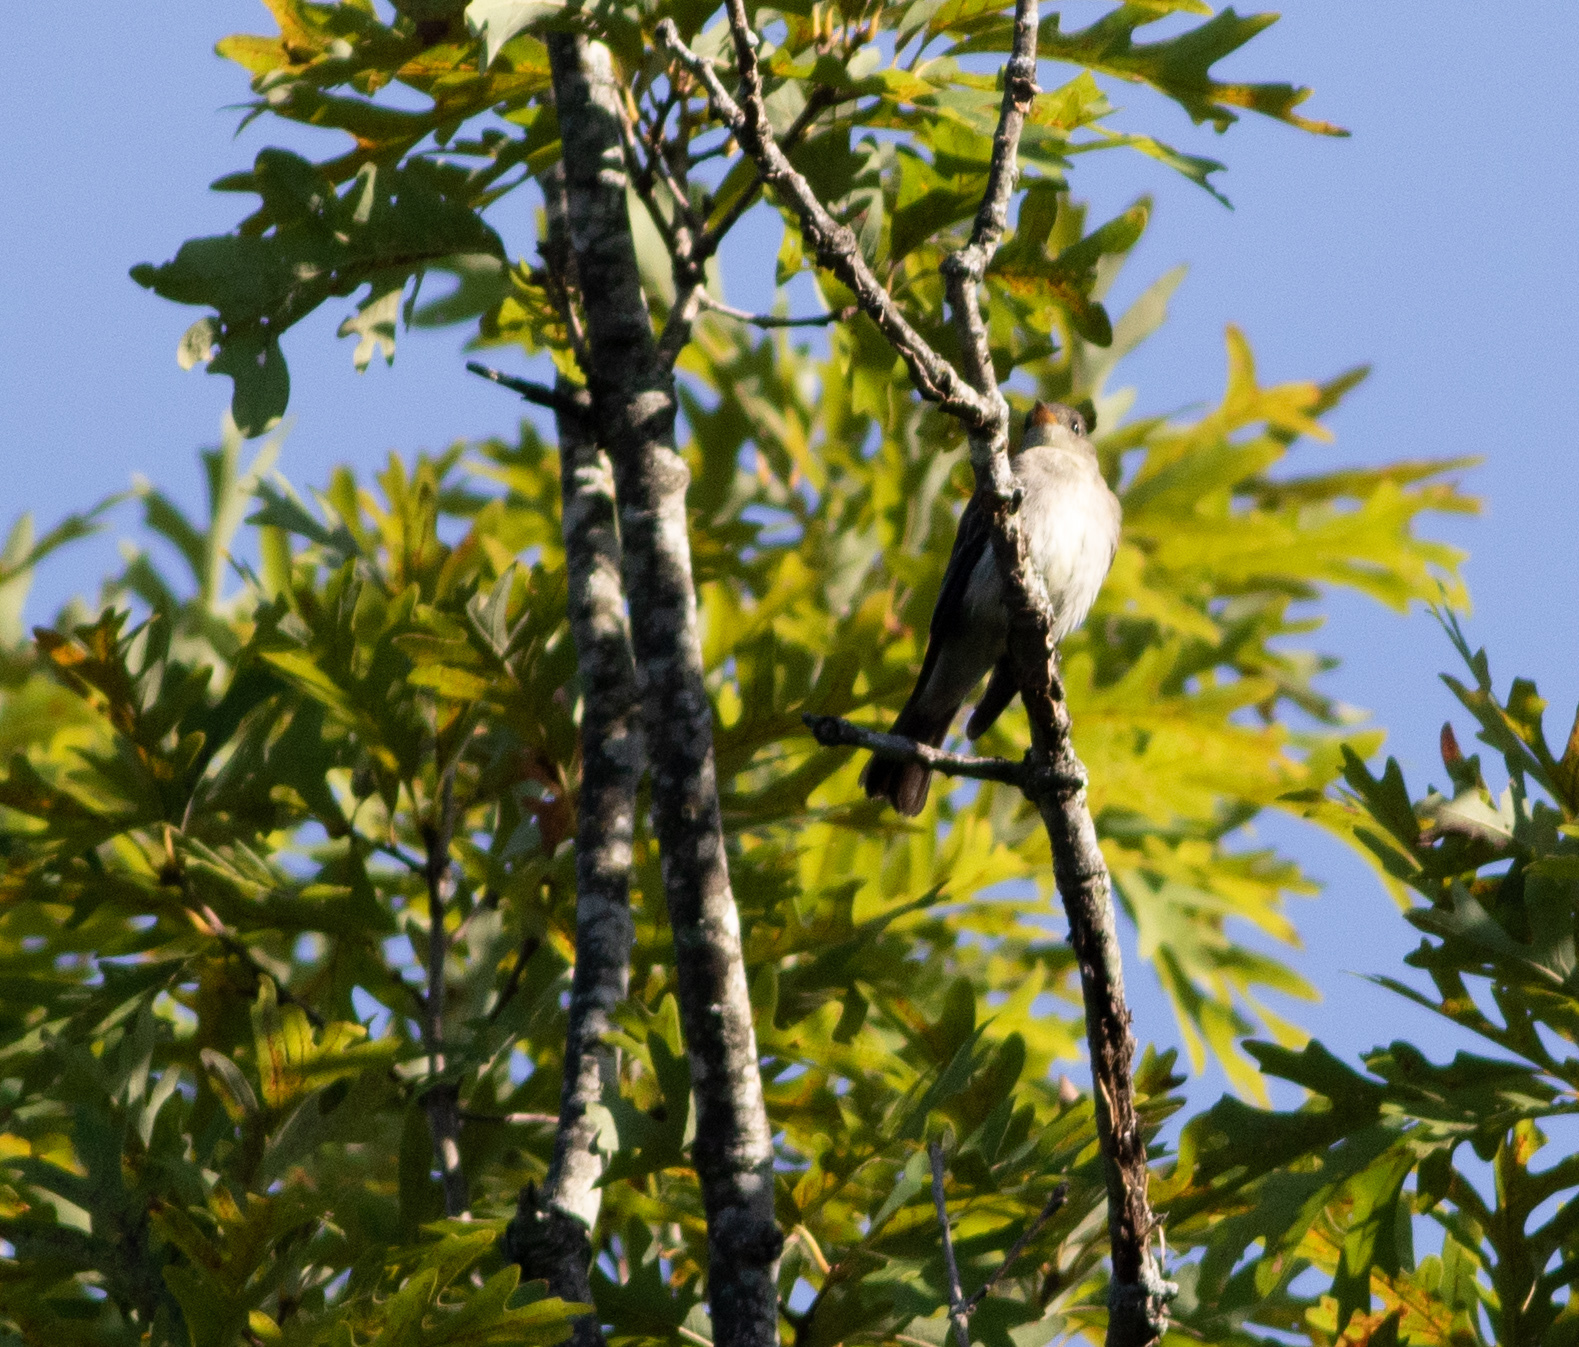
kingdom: Animalia
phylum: Chordata
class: Aves
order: Passeriformes
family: Tyrannidae
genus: Contopus
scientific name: Contopus virens
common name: Eastern wood-pewee
